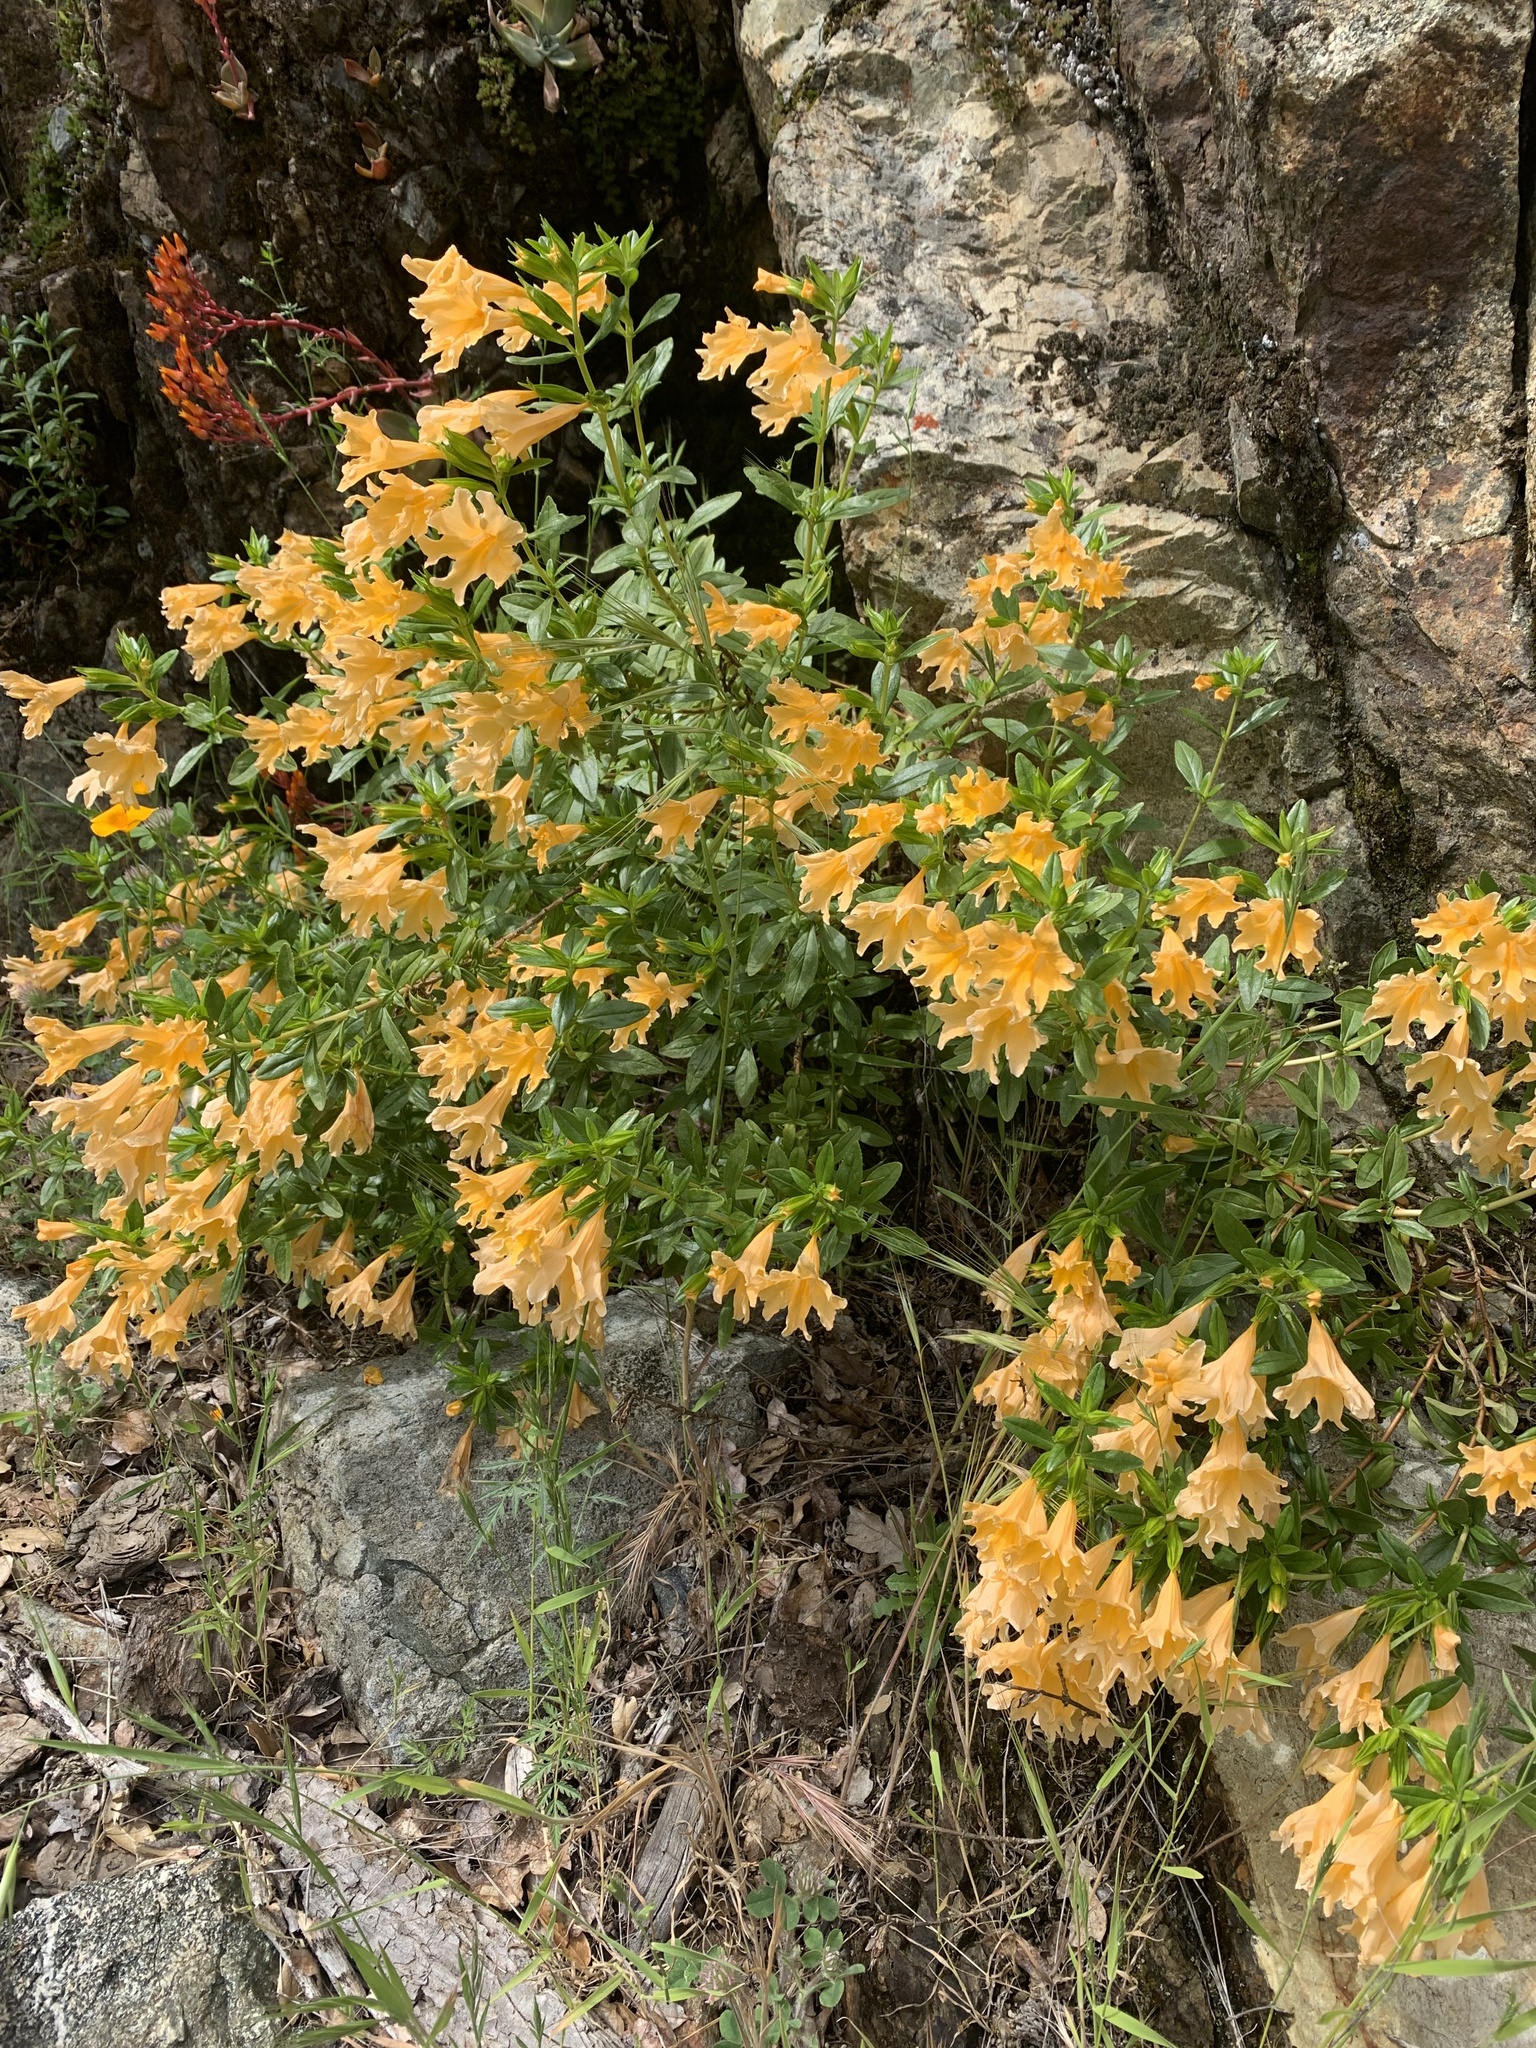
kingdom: Plantae
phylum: Tracheophyta
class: Magnoliopsida
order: Lamiales
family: Phrymaceae
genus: Diplacus
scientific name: Diplacus grandiflorus
